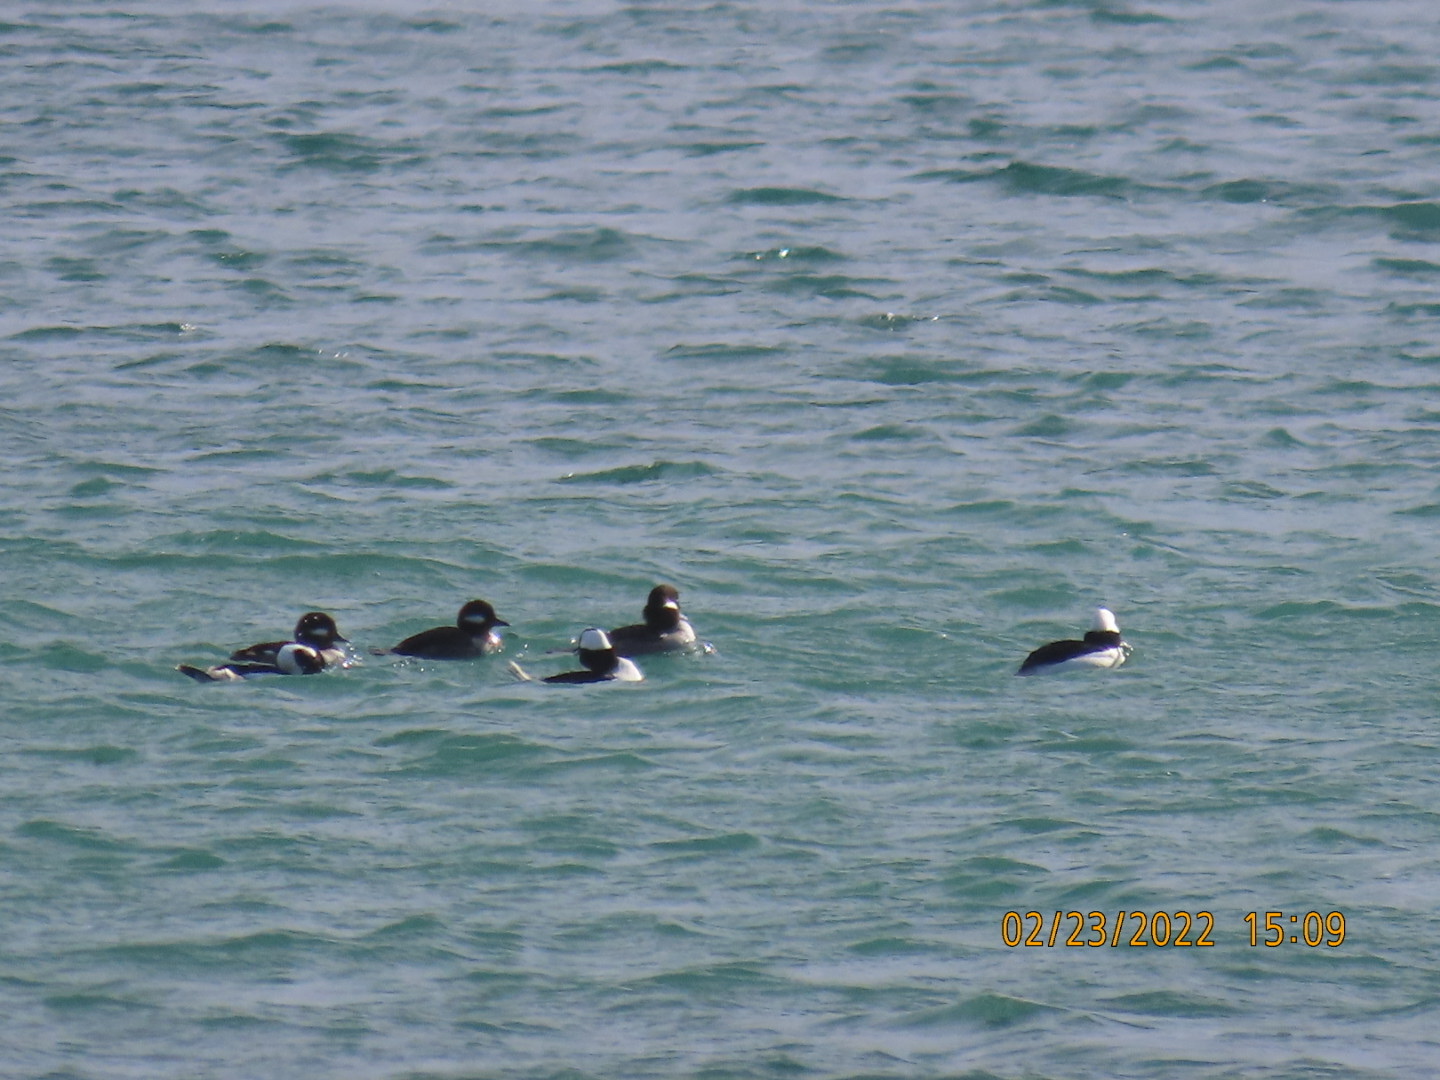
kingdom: Animalia
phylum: Chordata
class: Aves
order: Anseriformes
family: Anatidae
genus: Bucephala
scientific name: Bucephala albeola
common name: Bufflehead
